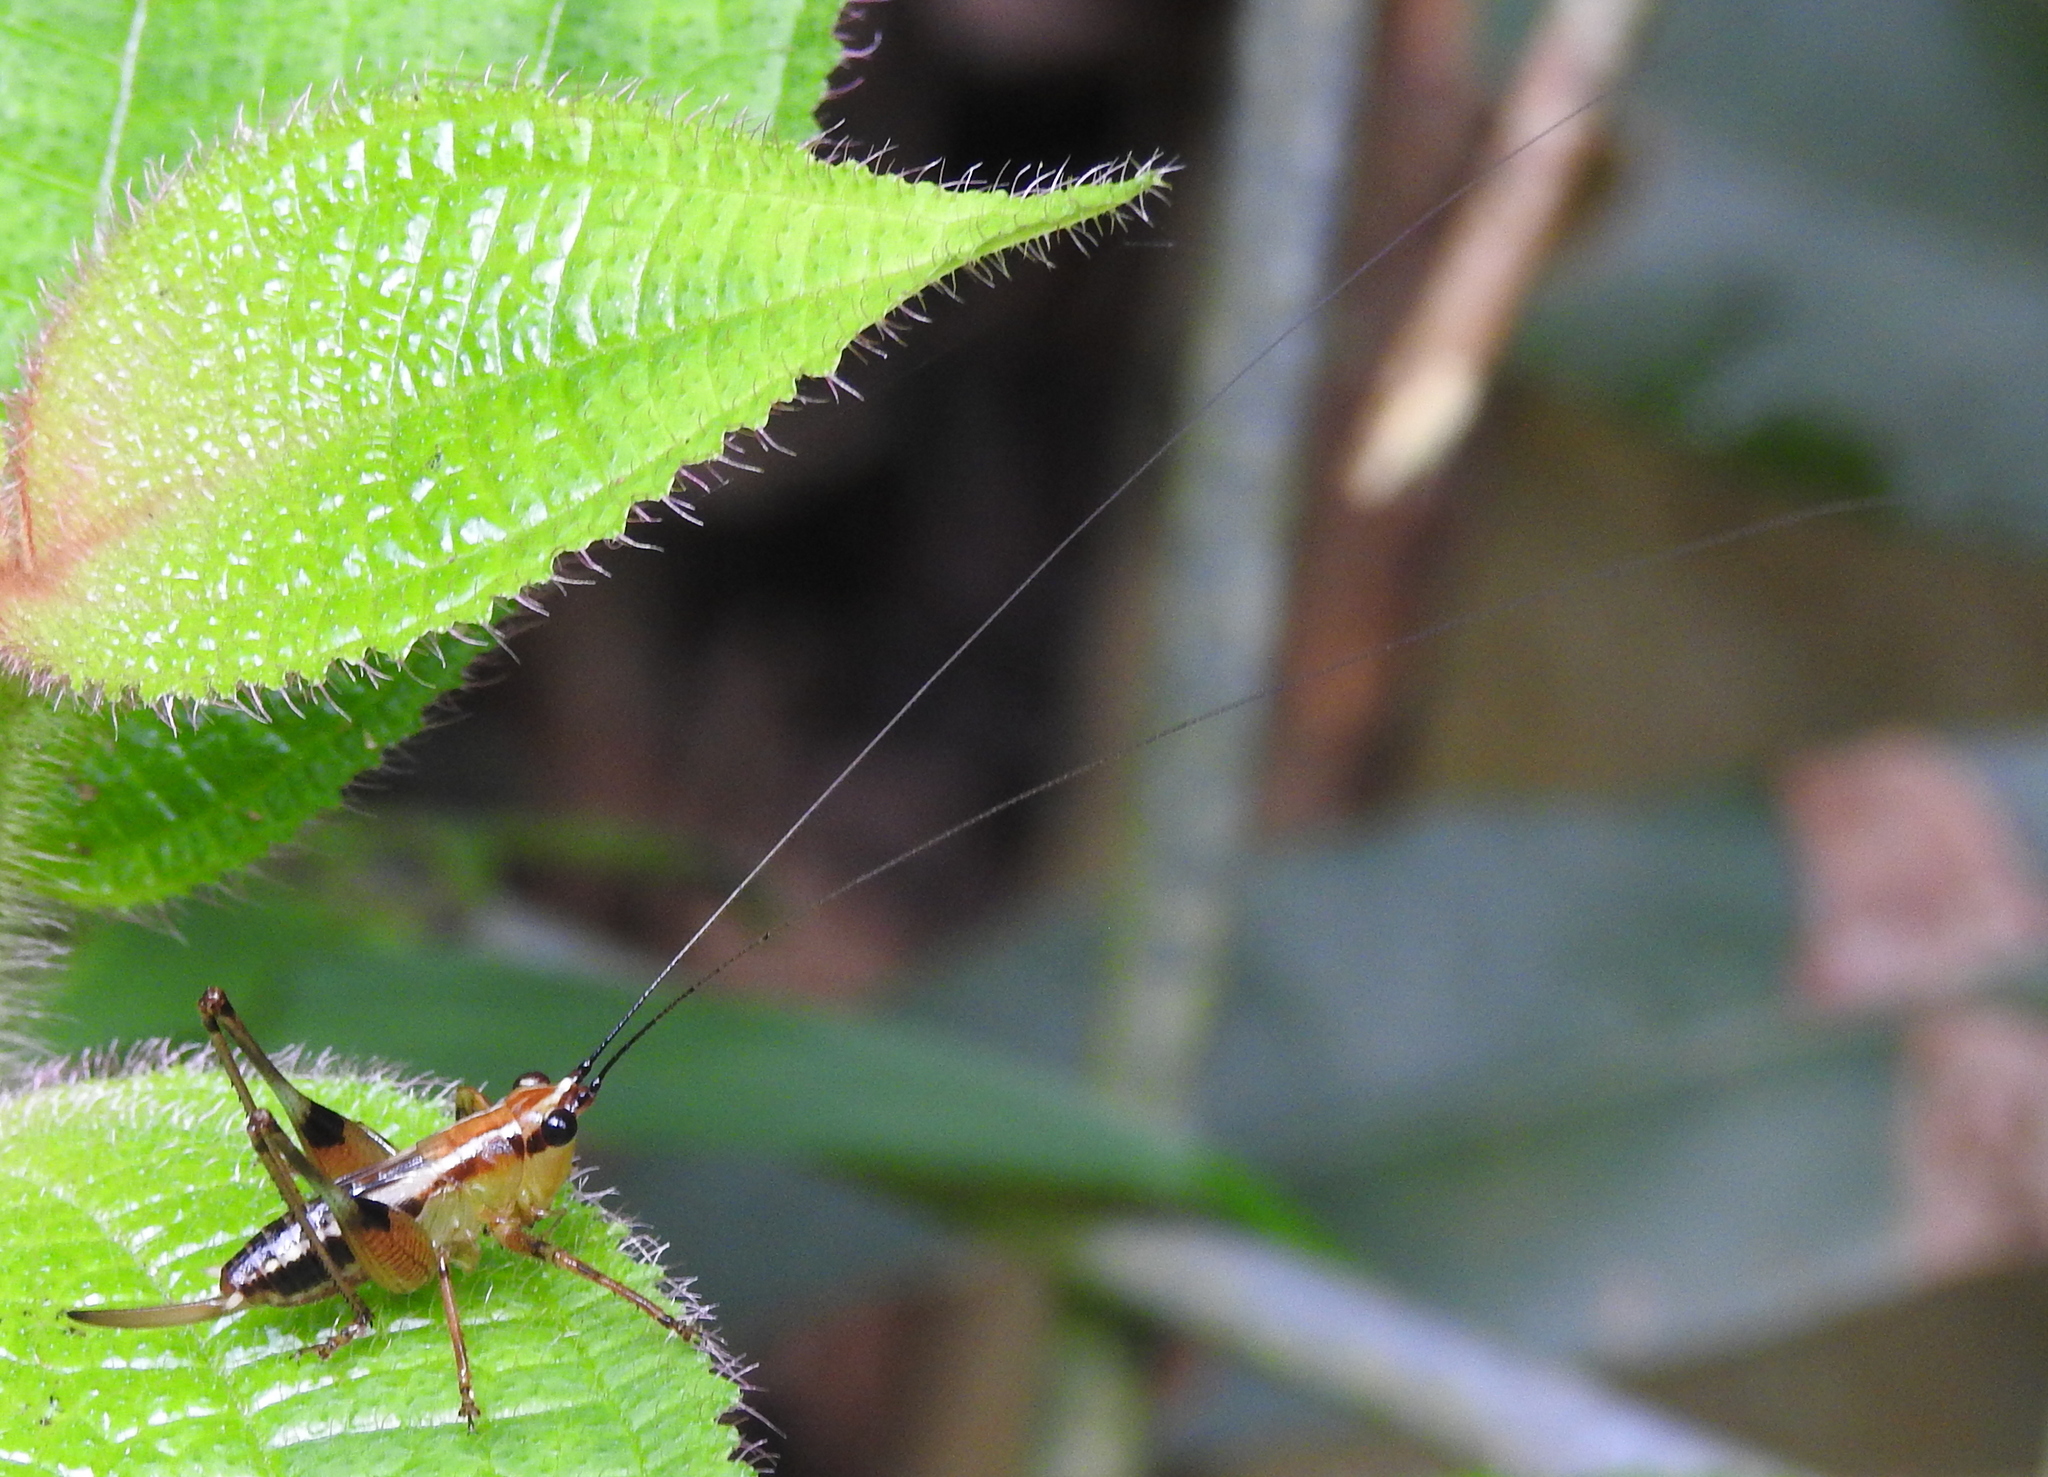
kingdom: Animalia
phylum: Arthropoda
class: Insecta
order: Orthoptera
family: Tettigoniidae
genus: Conocephalus
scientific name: Conocephalus melaenus
